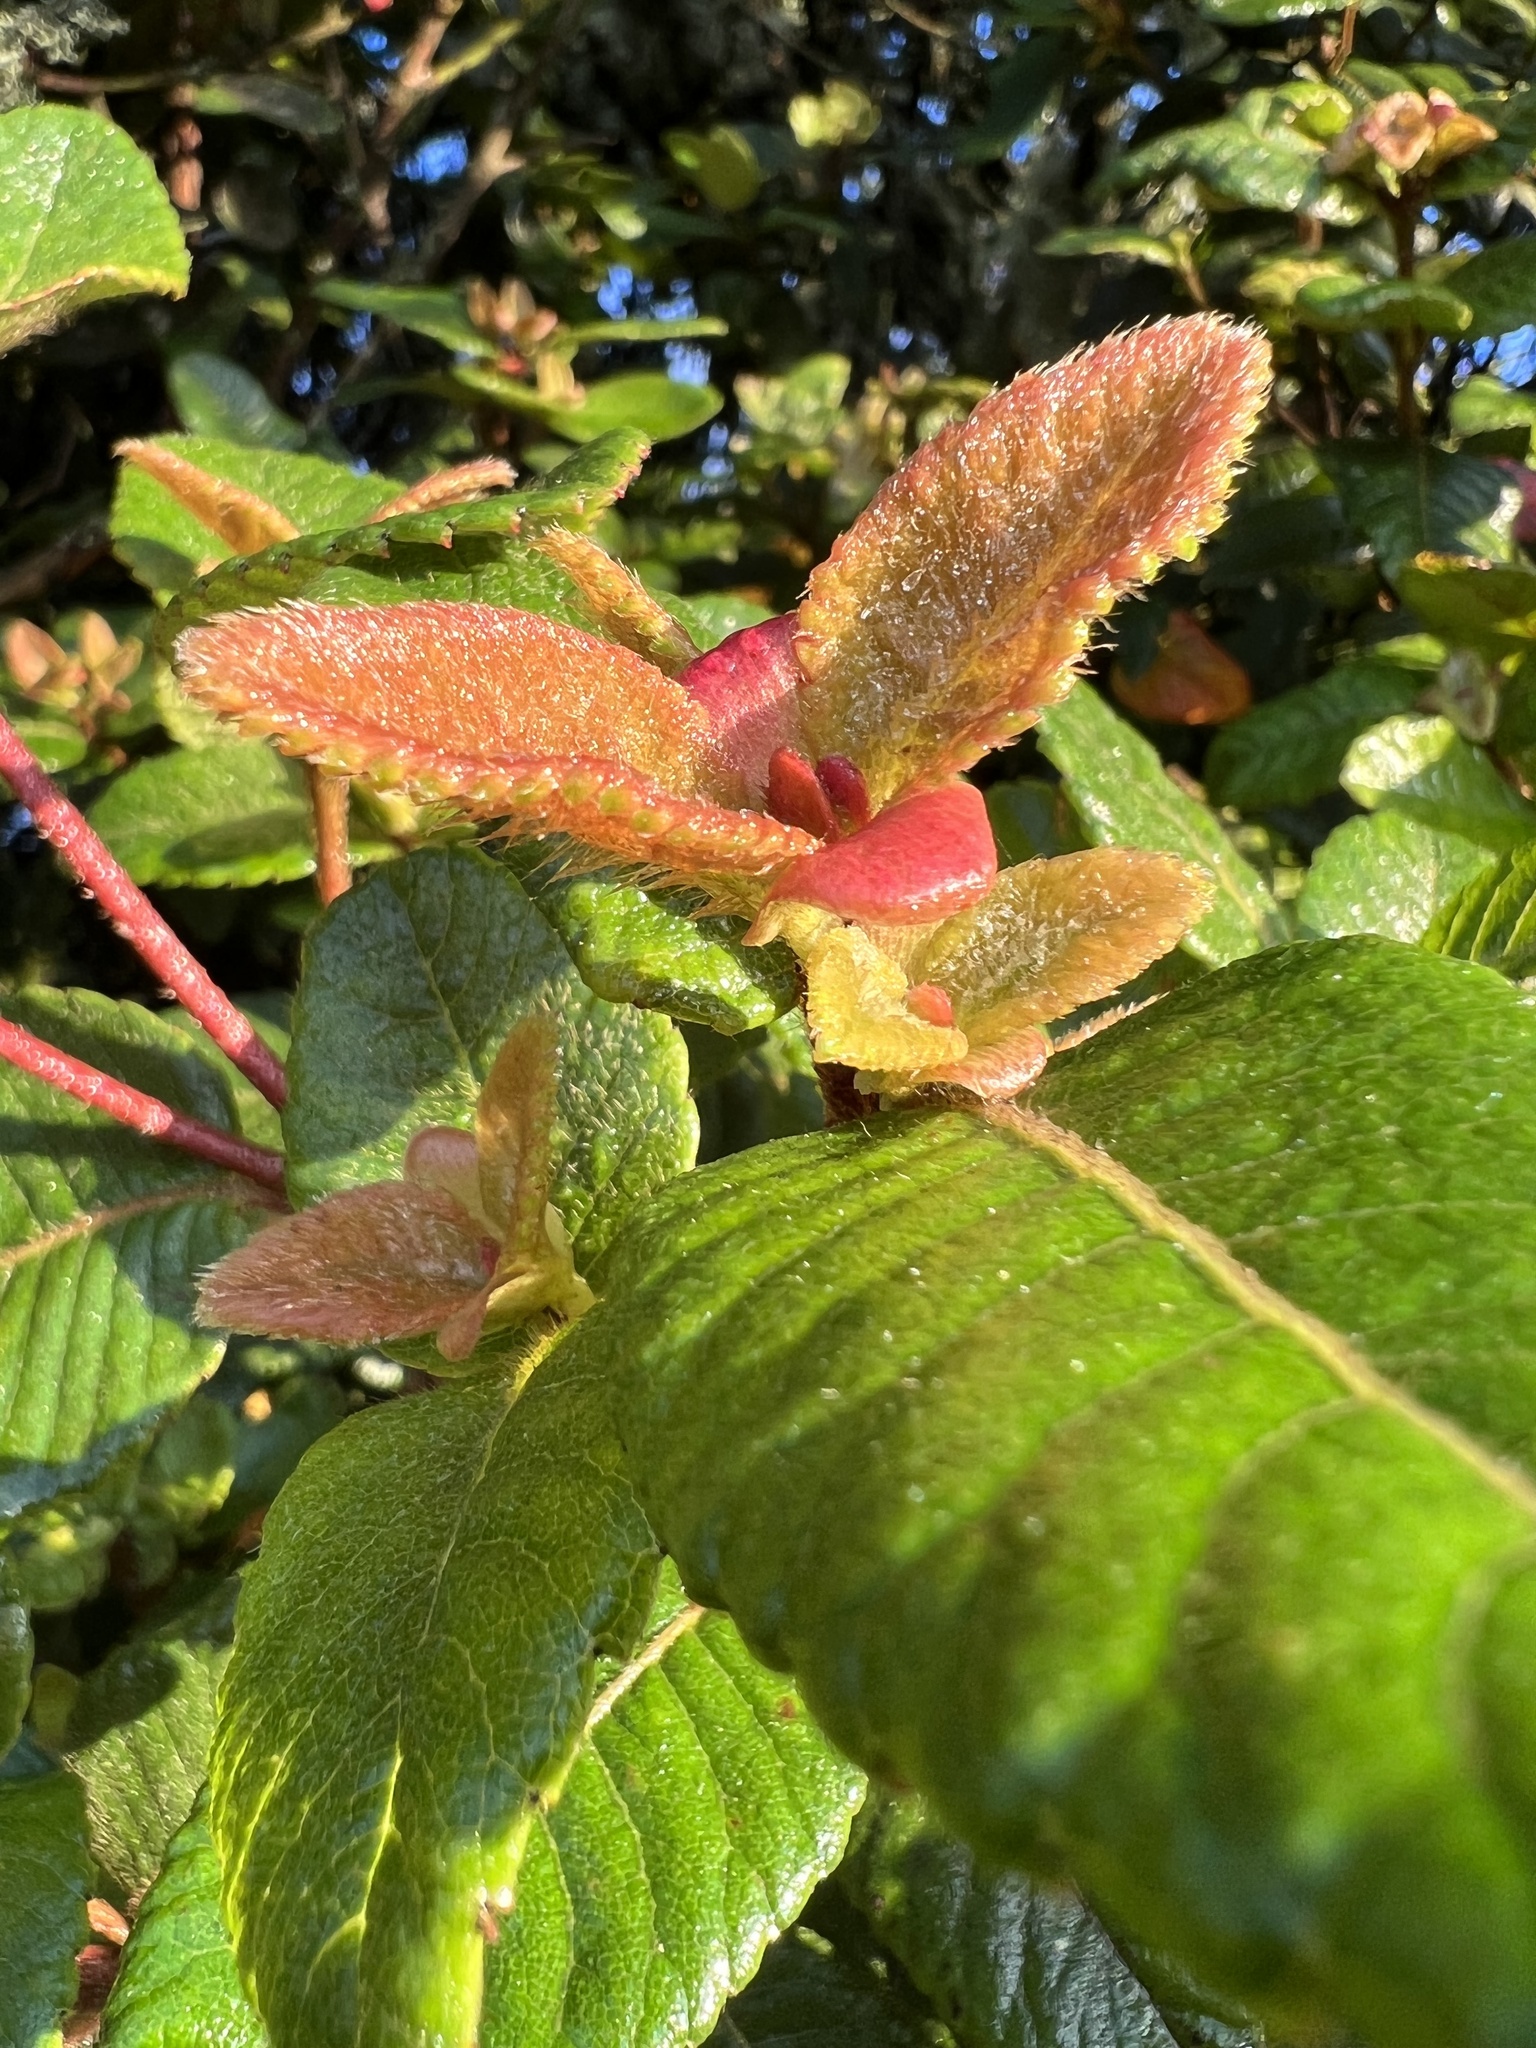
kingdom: Plantae
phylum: Tracheophyta
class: Magnoliopsida
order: Oxalidales
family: Cunoniaceae
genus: Weinmannia
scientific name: Weinmannia rollottii
